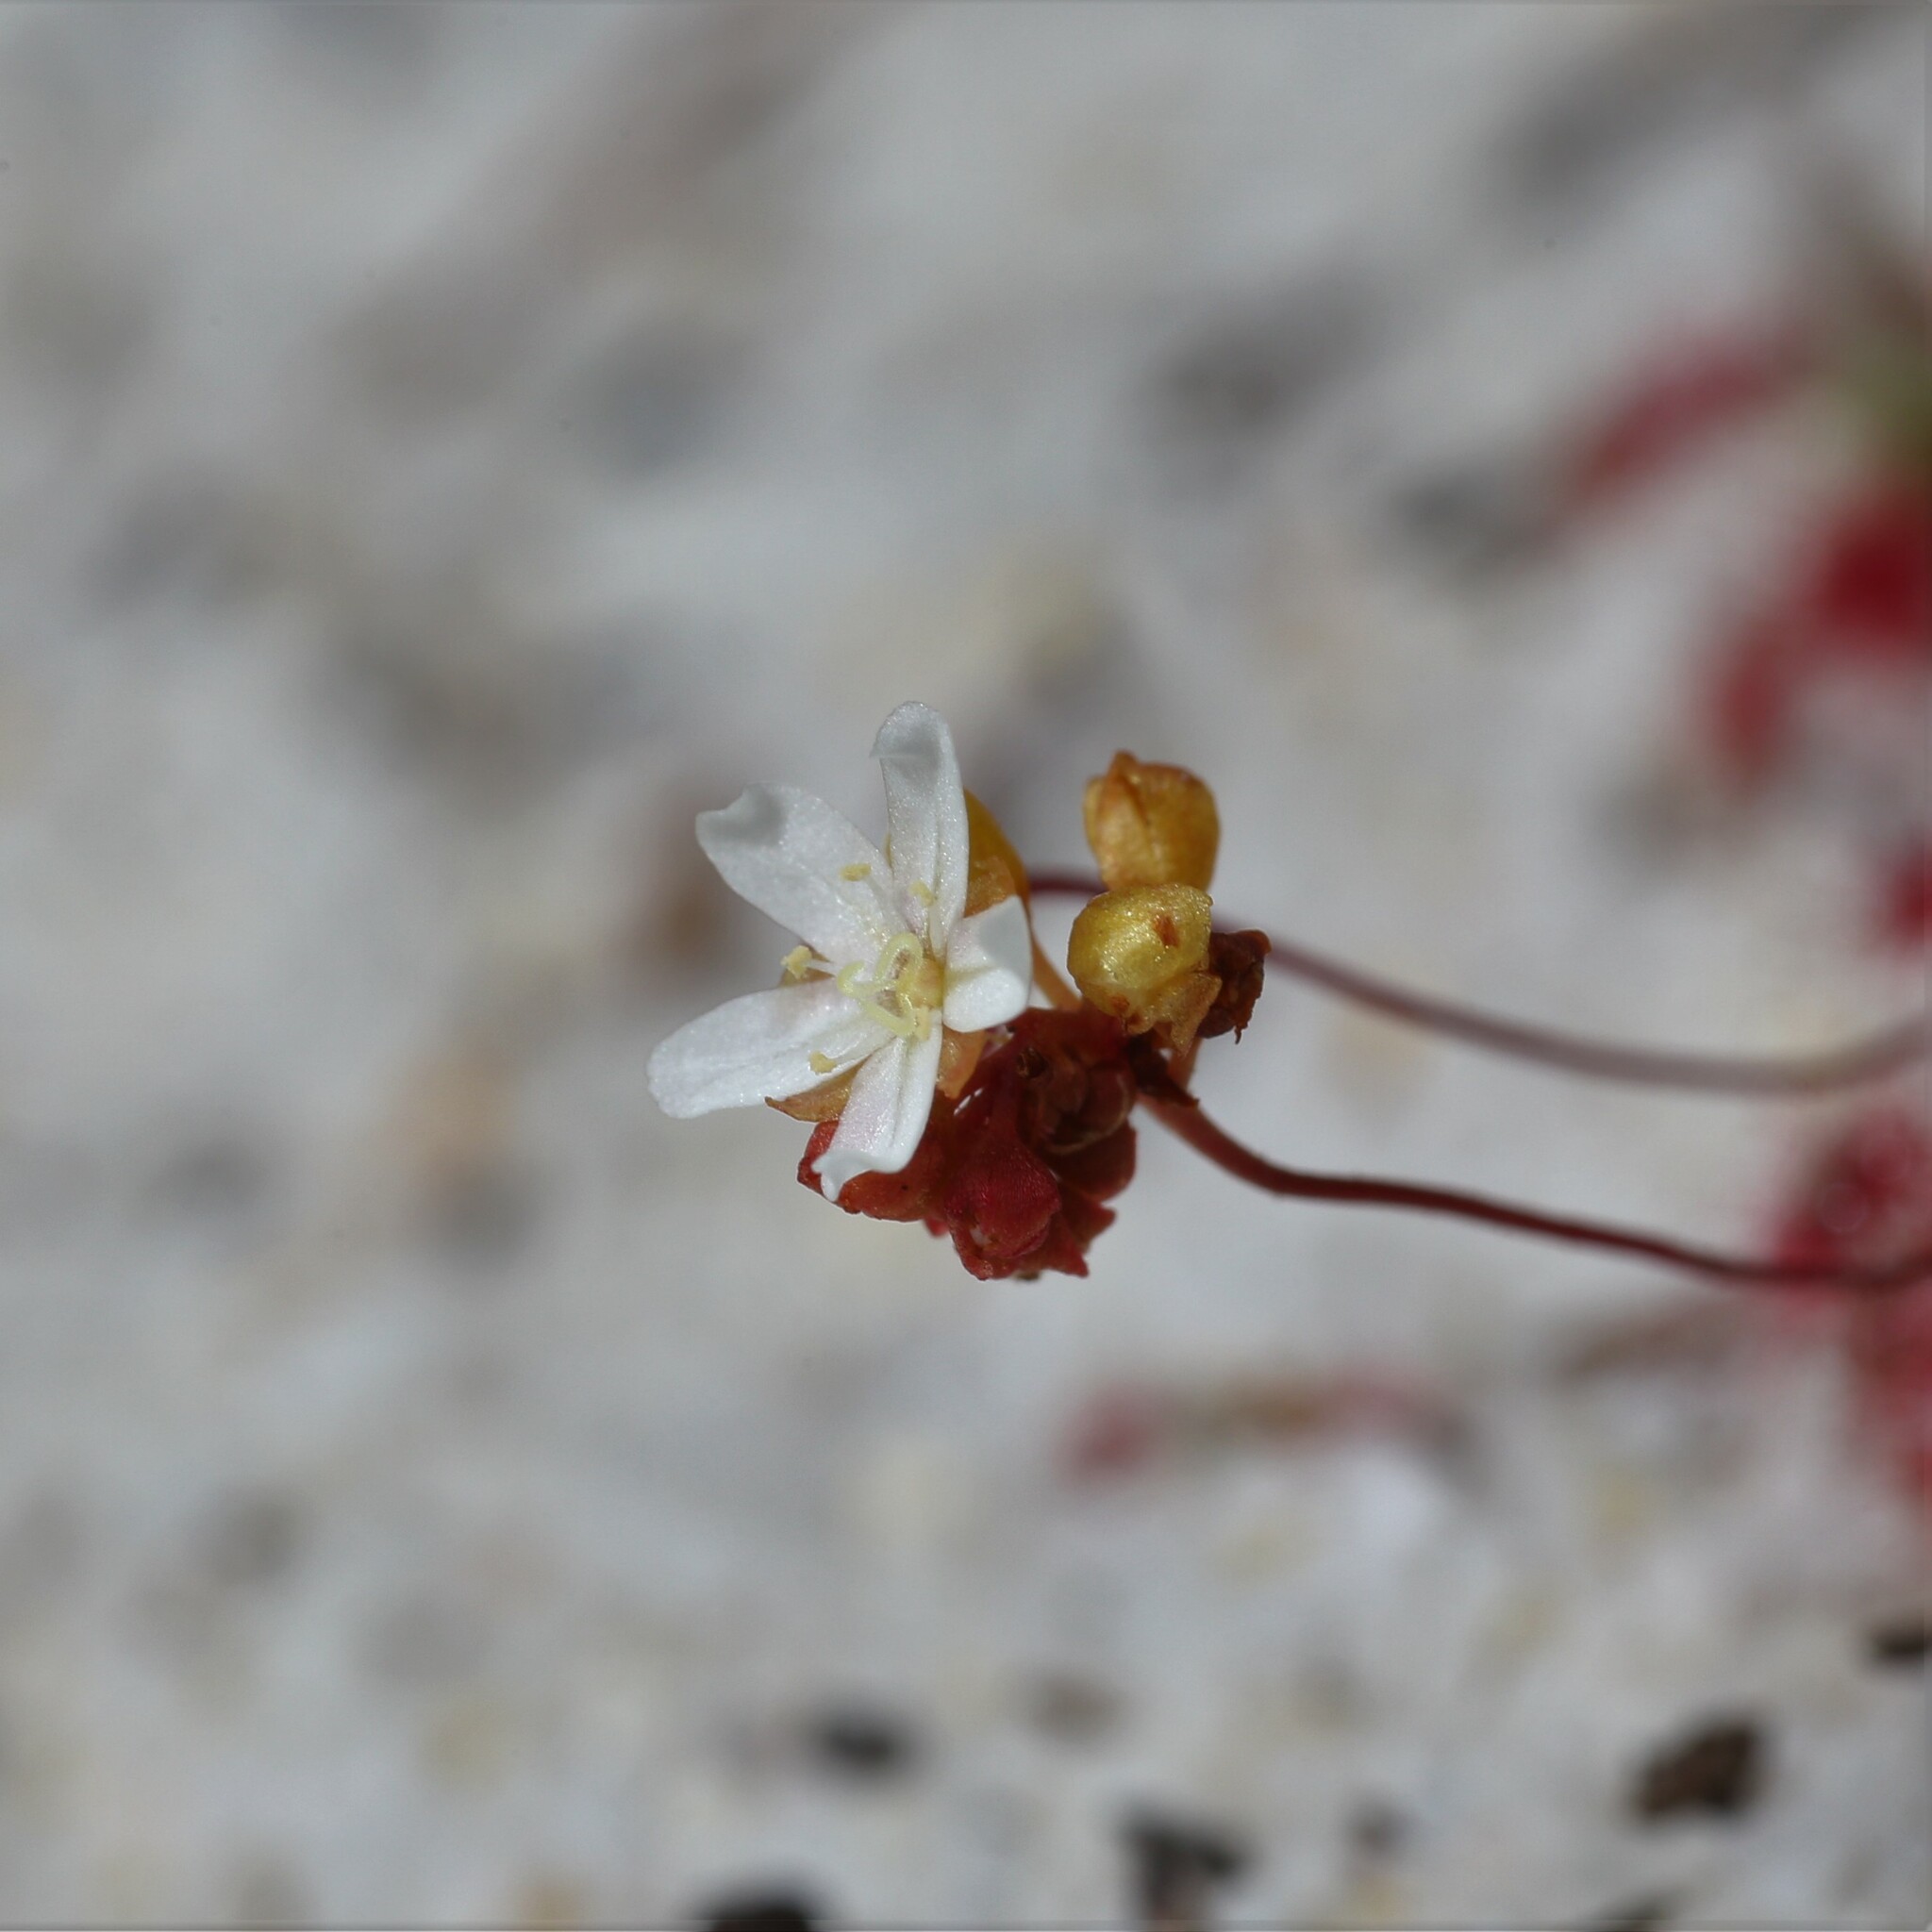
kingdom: Plantae
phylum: Tracheophyta
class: Magnoliopsida
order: Caryophyllales
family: Droseraceae
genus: Drosera
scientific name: Drosera paleacea
